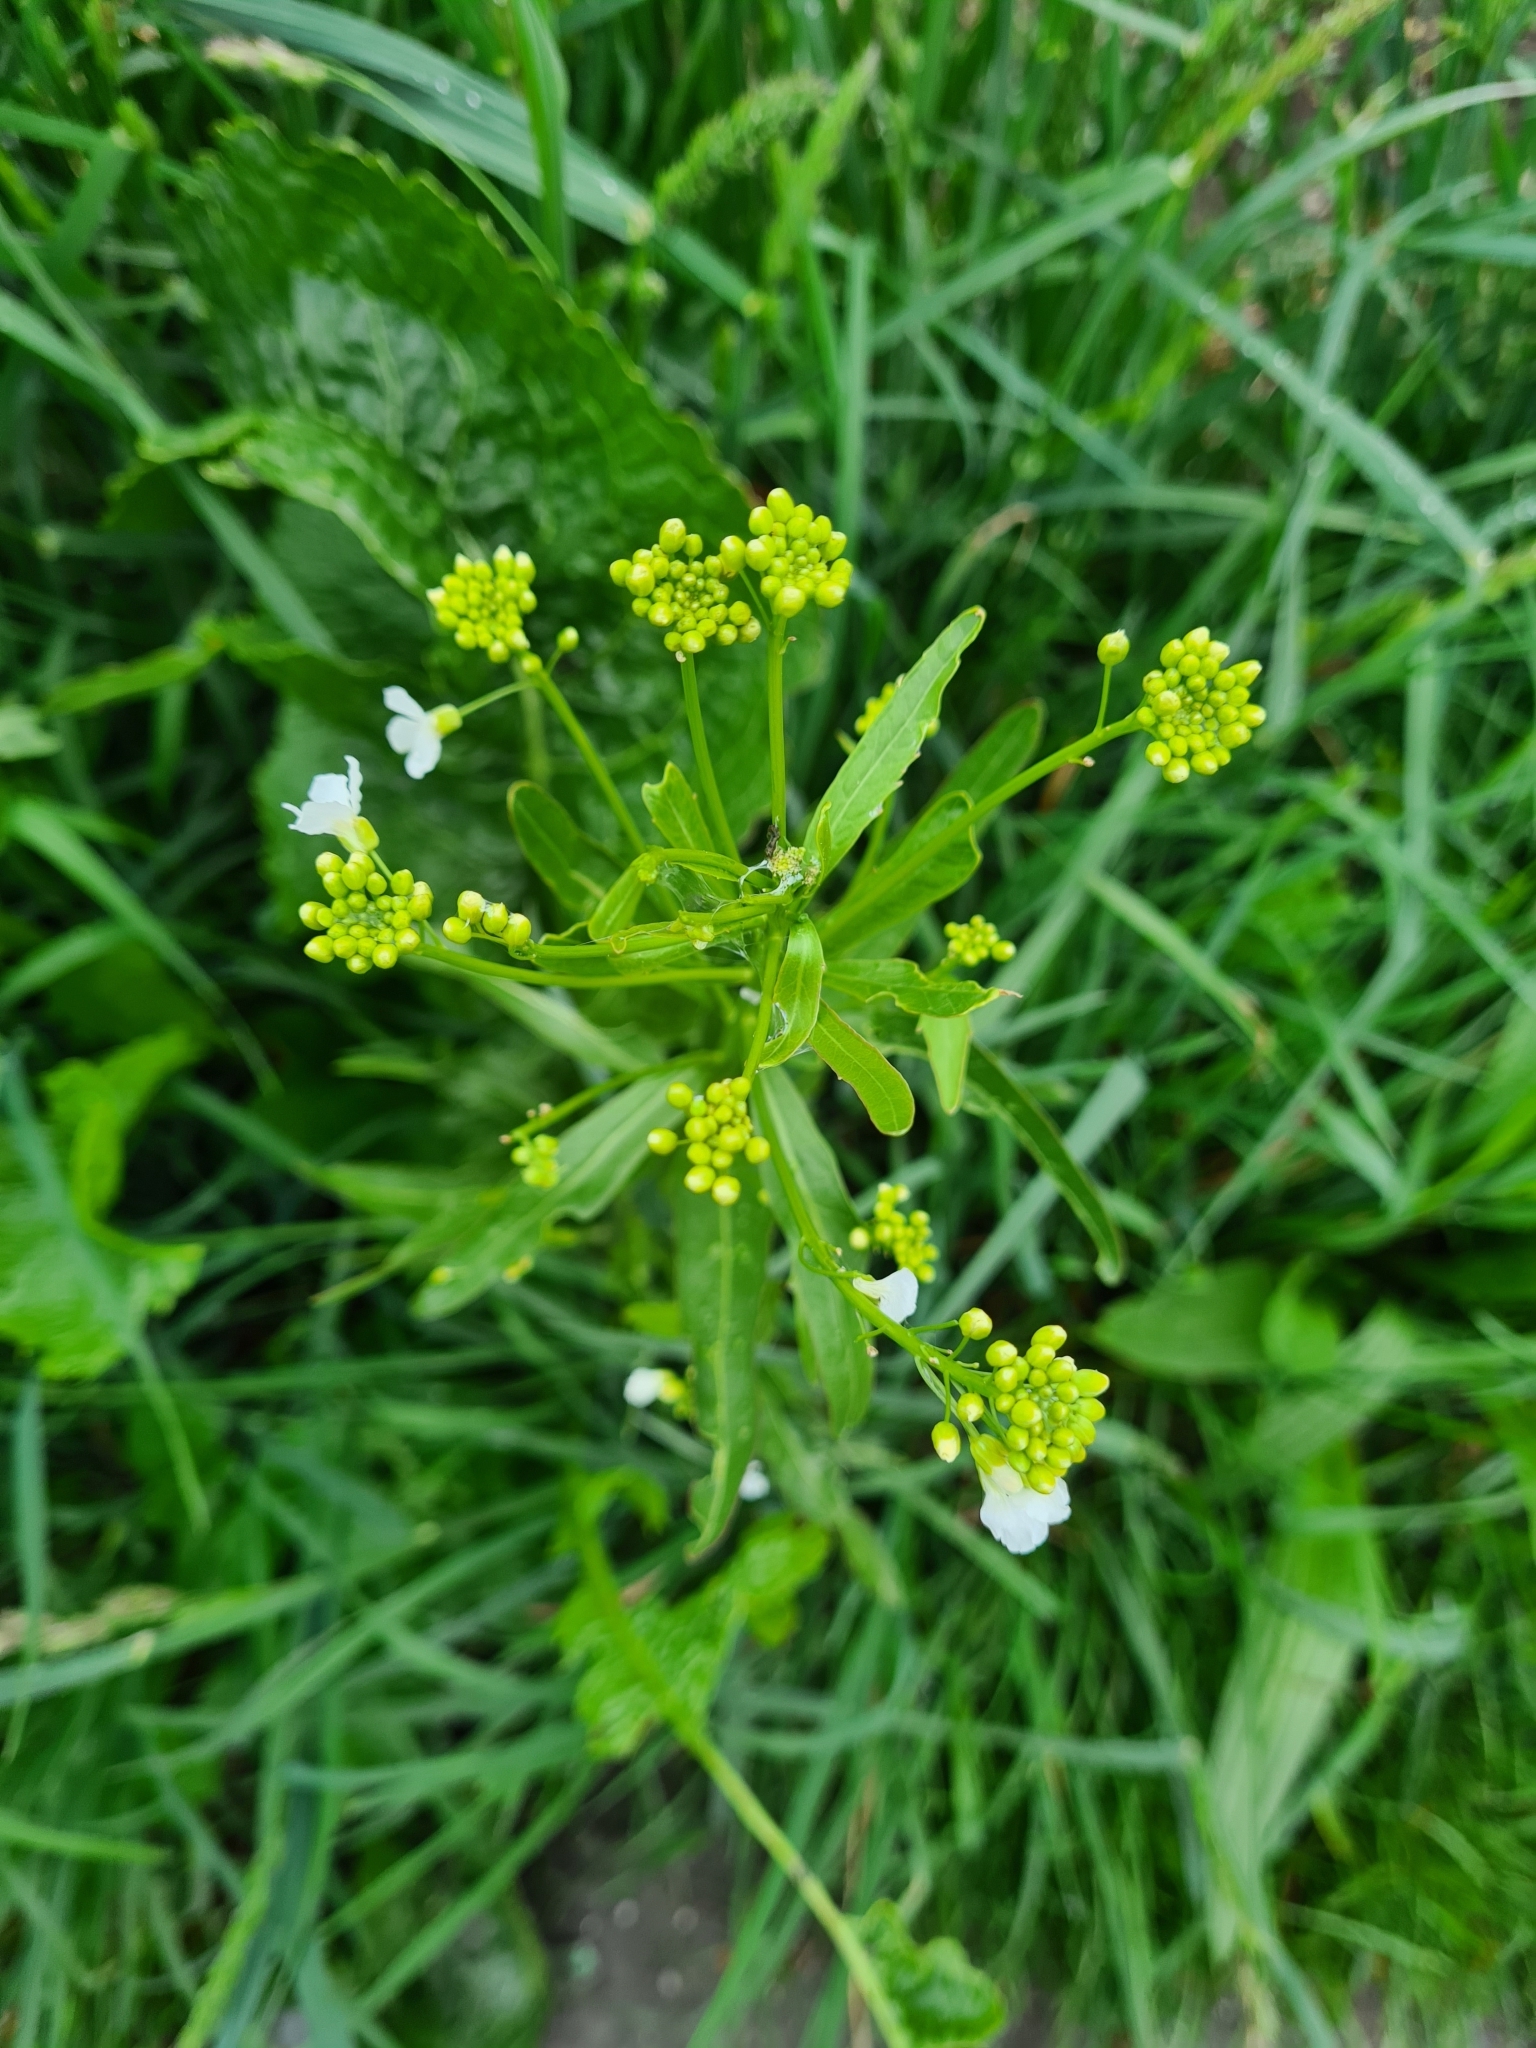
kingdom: Plantae
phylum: Tracheophyta
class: Magnoliopsida
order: Brassicales
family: Brassicaceae
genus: Armoracia
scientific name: Armoracia rusticana
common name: Horseradish
